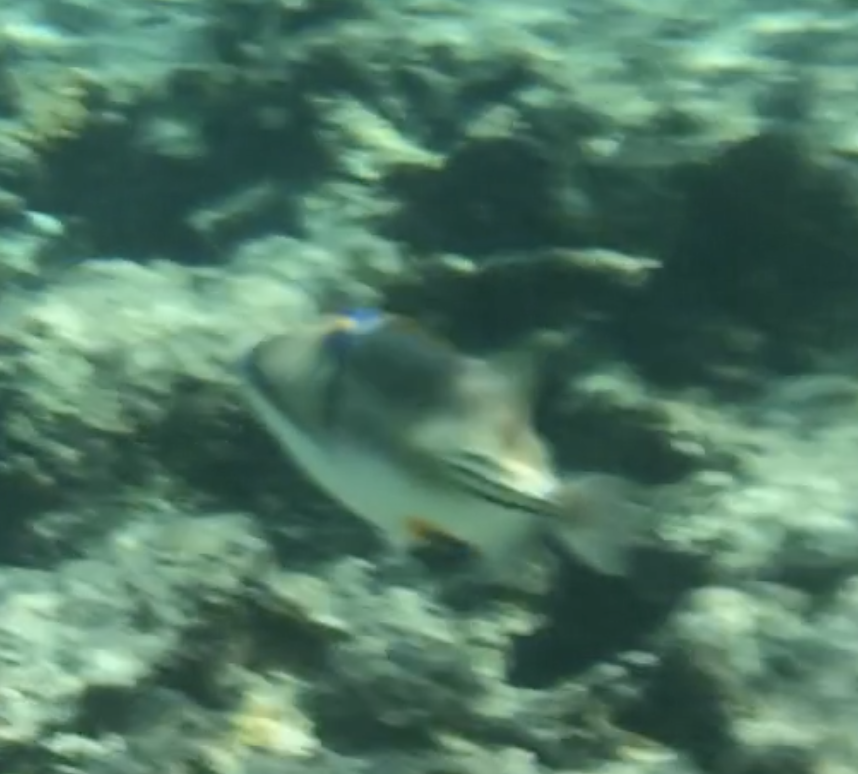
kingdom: Animalia
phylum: Chordata
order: Tetraodontiformes
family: Balistidae
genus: Rhinecanthus
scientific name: Rhinecanthus assasi
